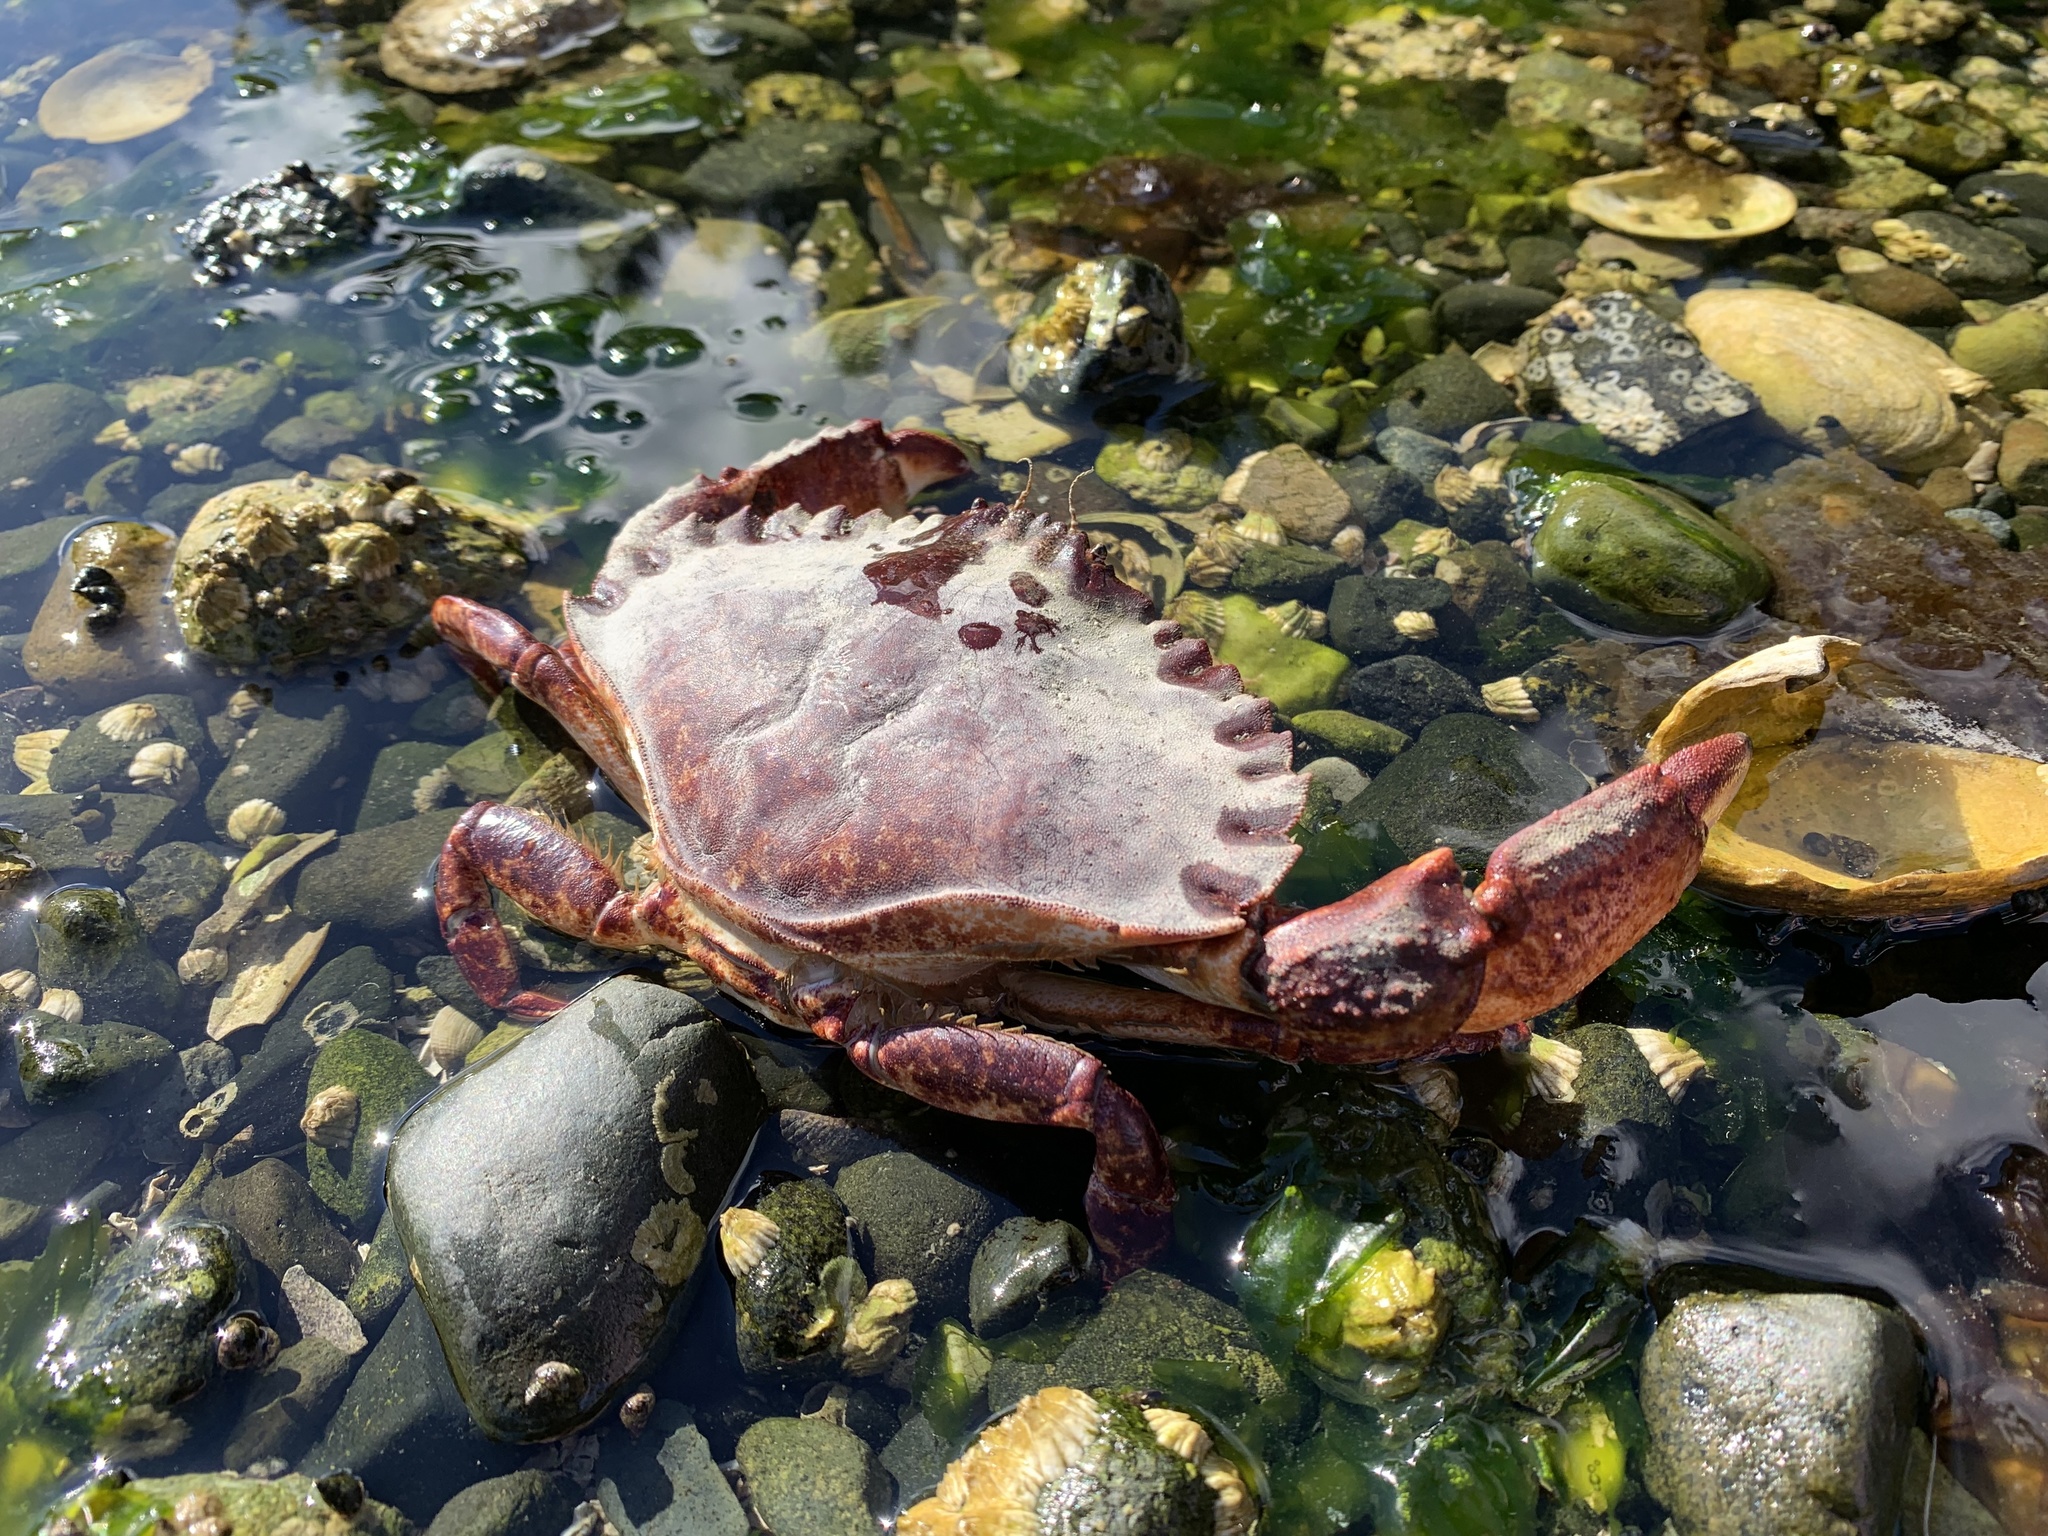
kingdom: Animalia
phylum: Arthropoda
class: Malacostraca
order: Decapoda
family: Cancridae
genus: Cancer
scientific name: Cancer productus
